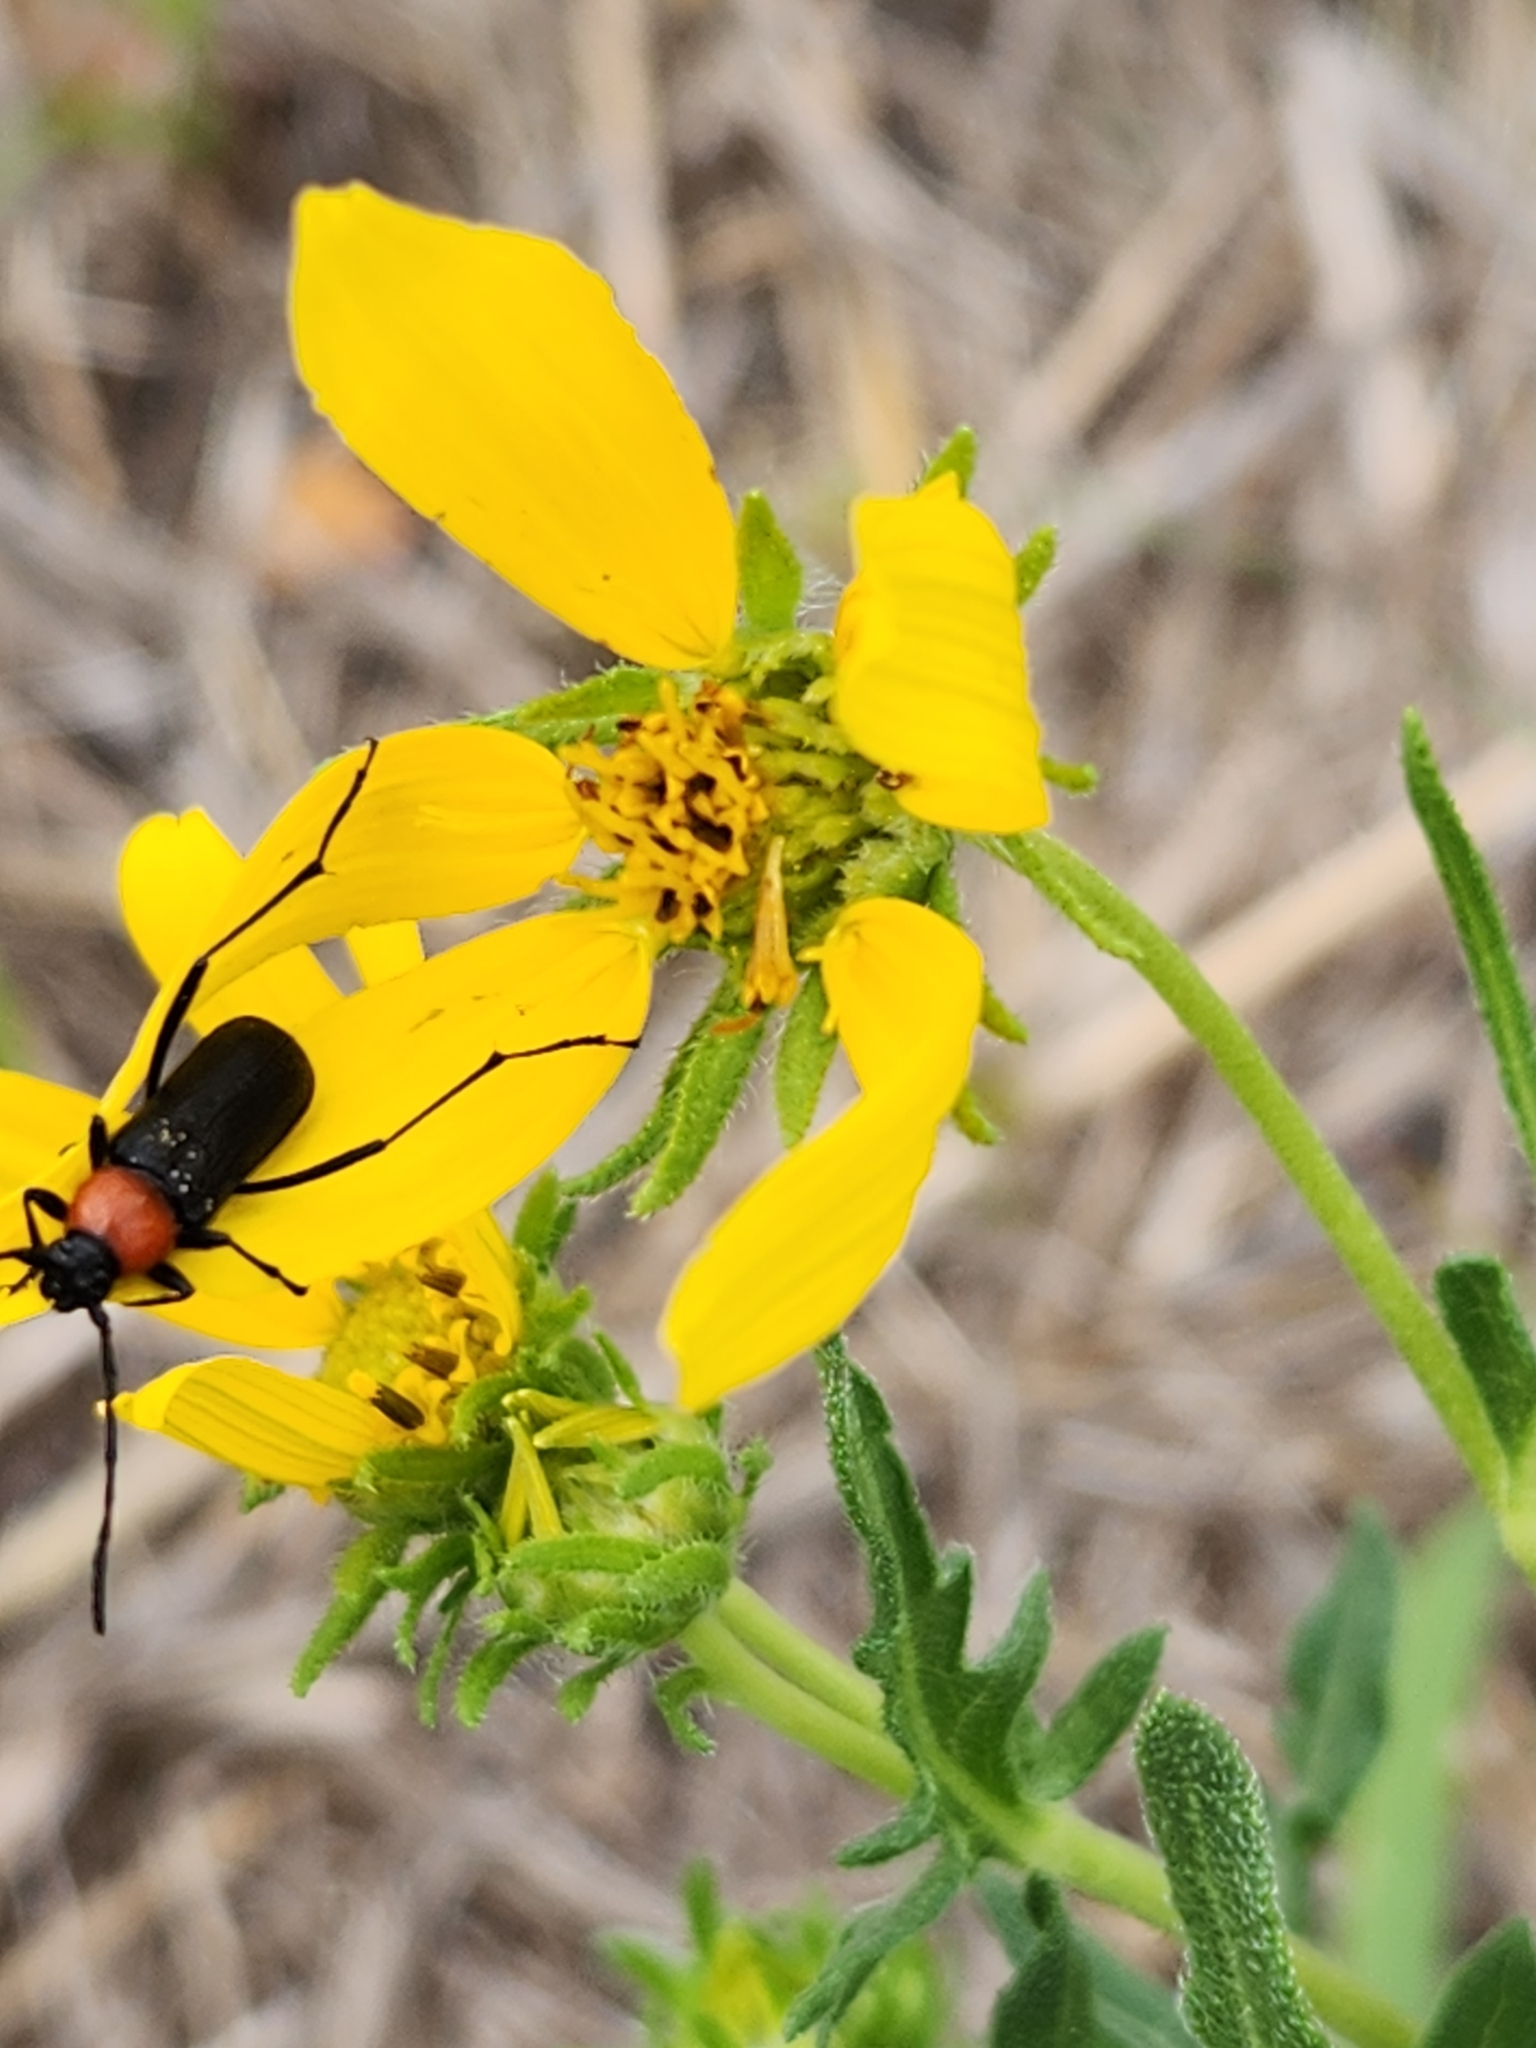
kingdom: Animalia
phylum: Arthropoda
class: Insecta
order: Coleoptera
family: Cerambycidae
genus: Batyle
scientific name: Batyle ignicollis
